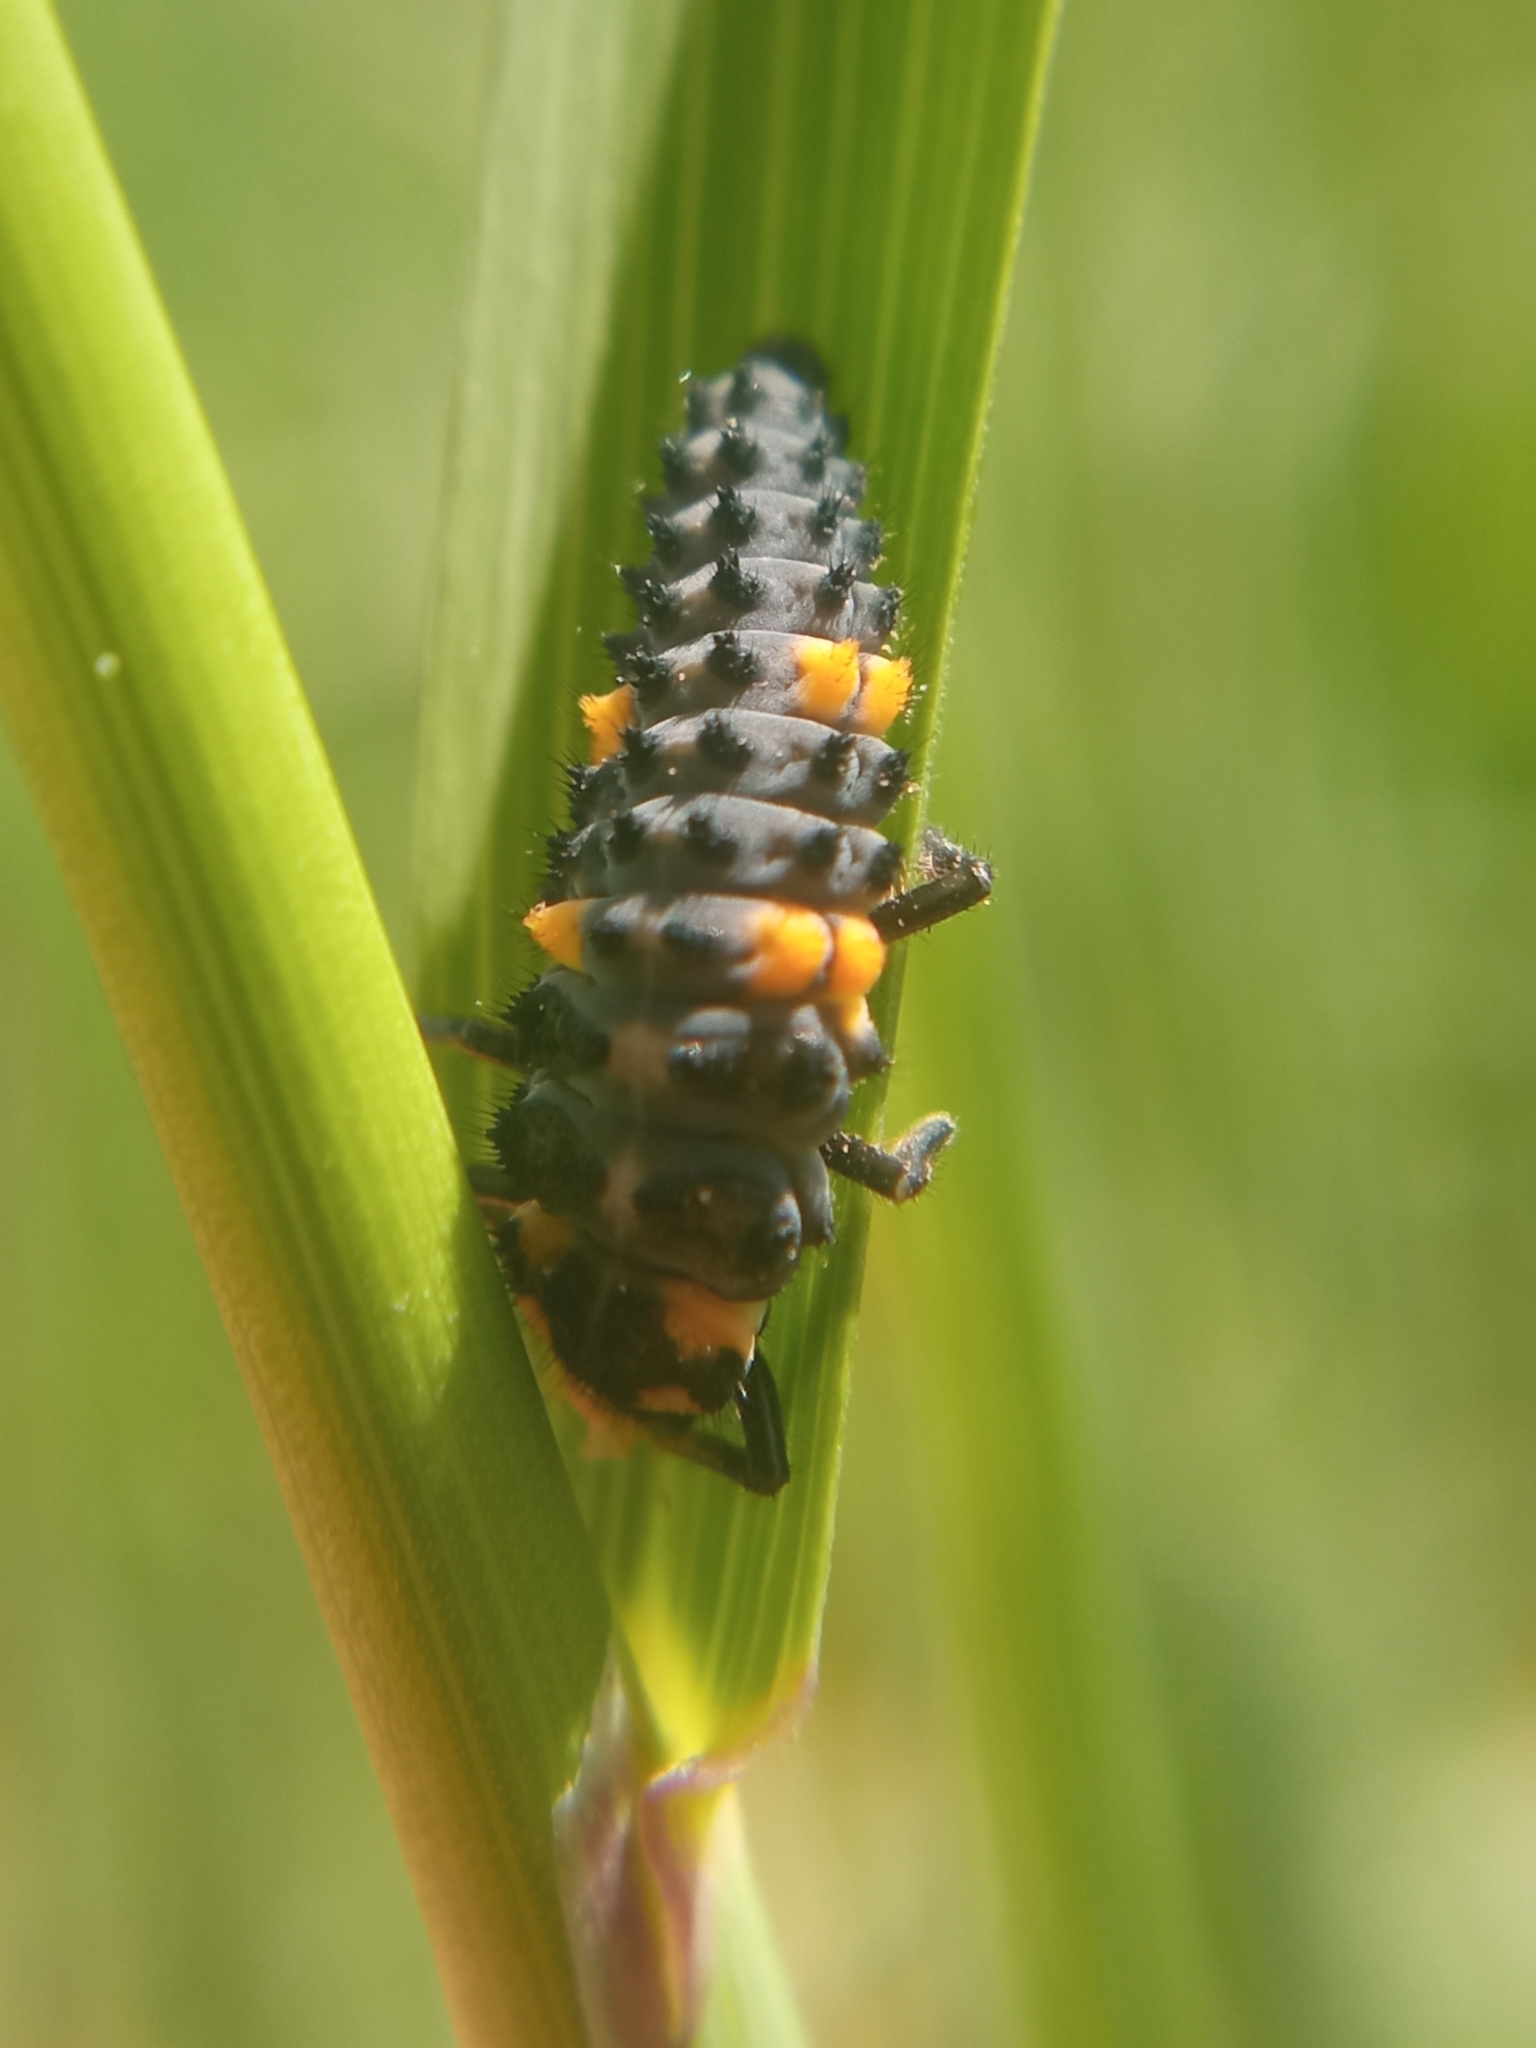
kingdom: Animalia
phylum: Arthropoda
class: Insecta
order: Coleoptera
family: Coccinellidae
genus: Coccinella
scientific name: Coccinella septempunctata
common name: Sevenspotted lady beetle
